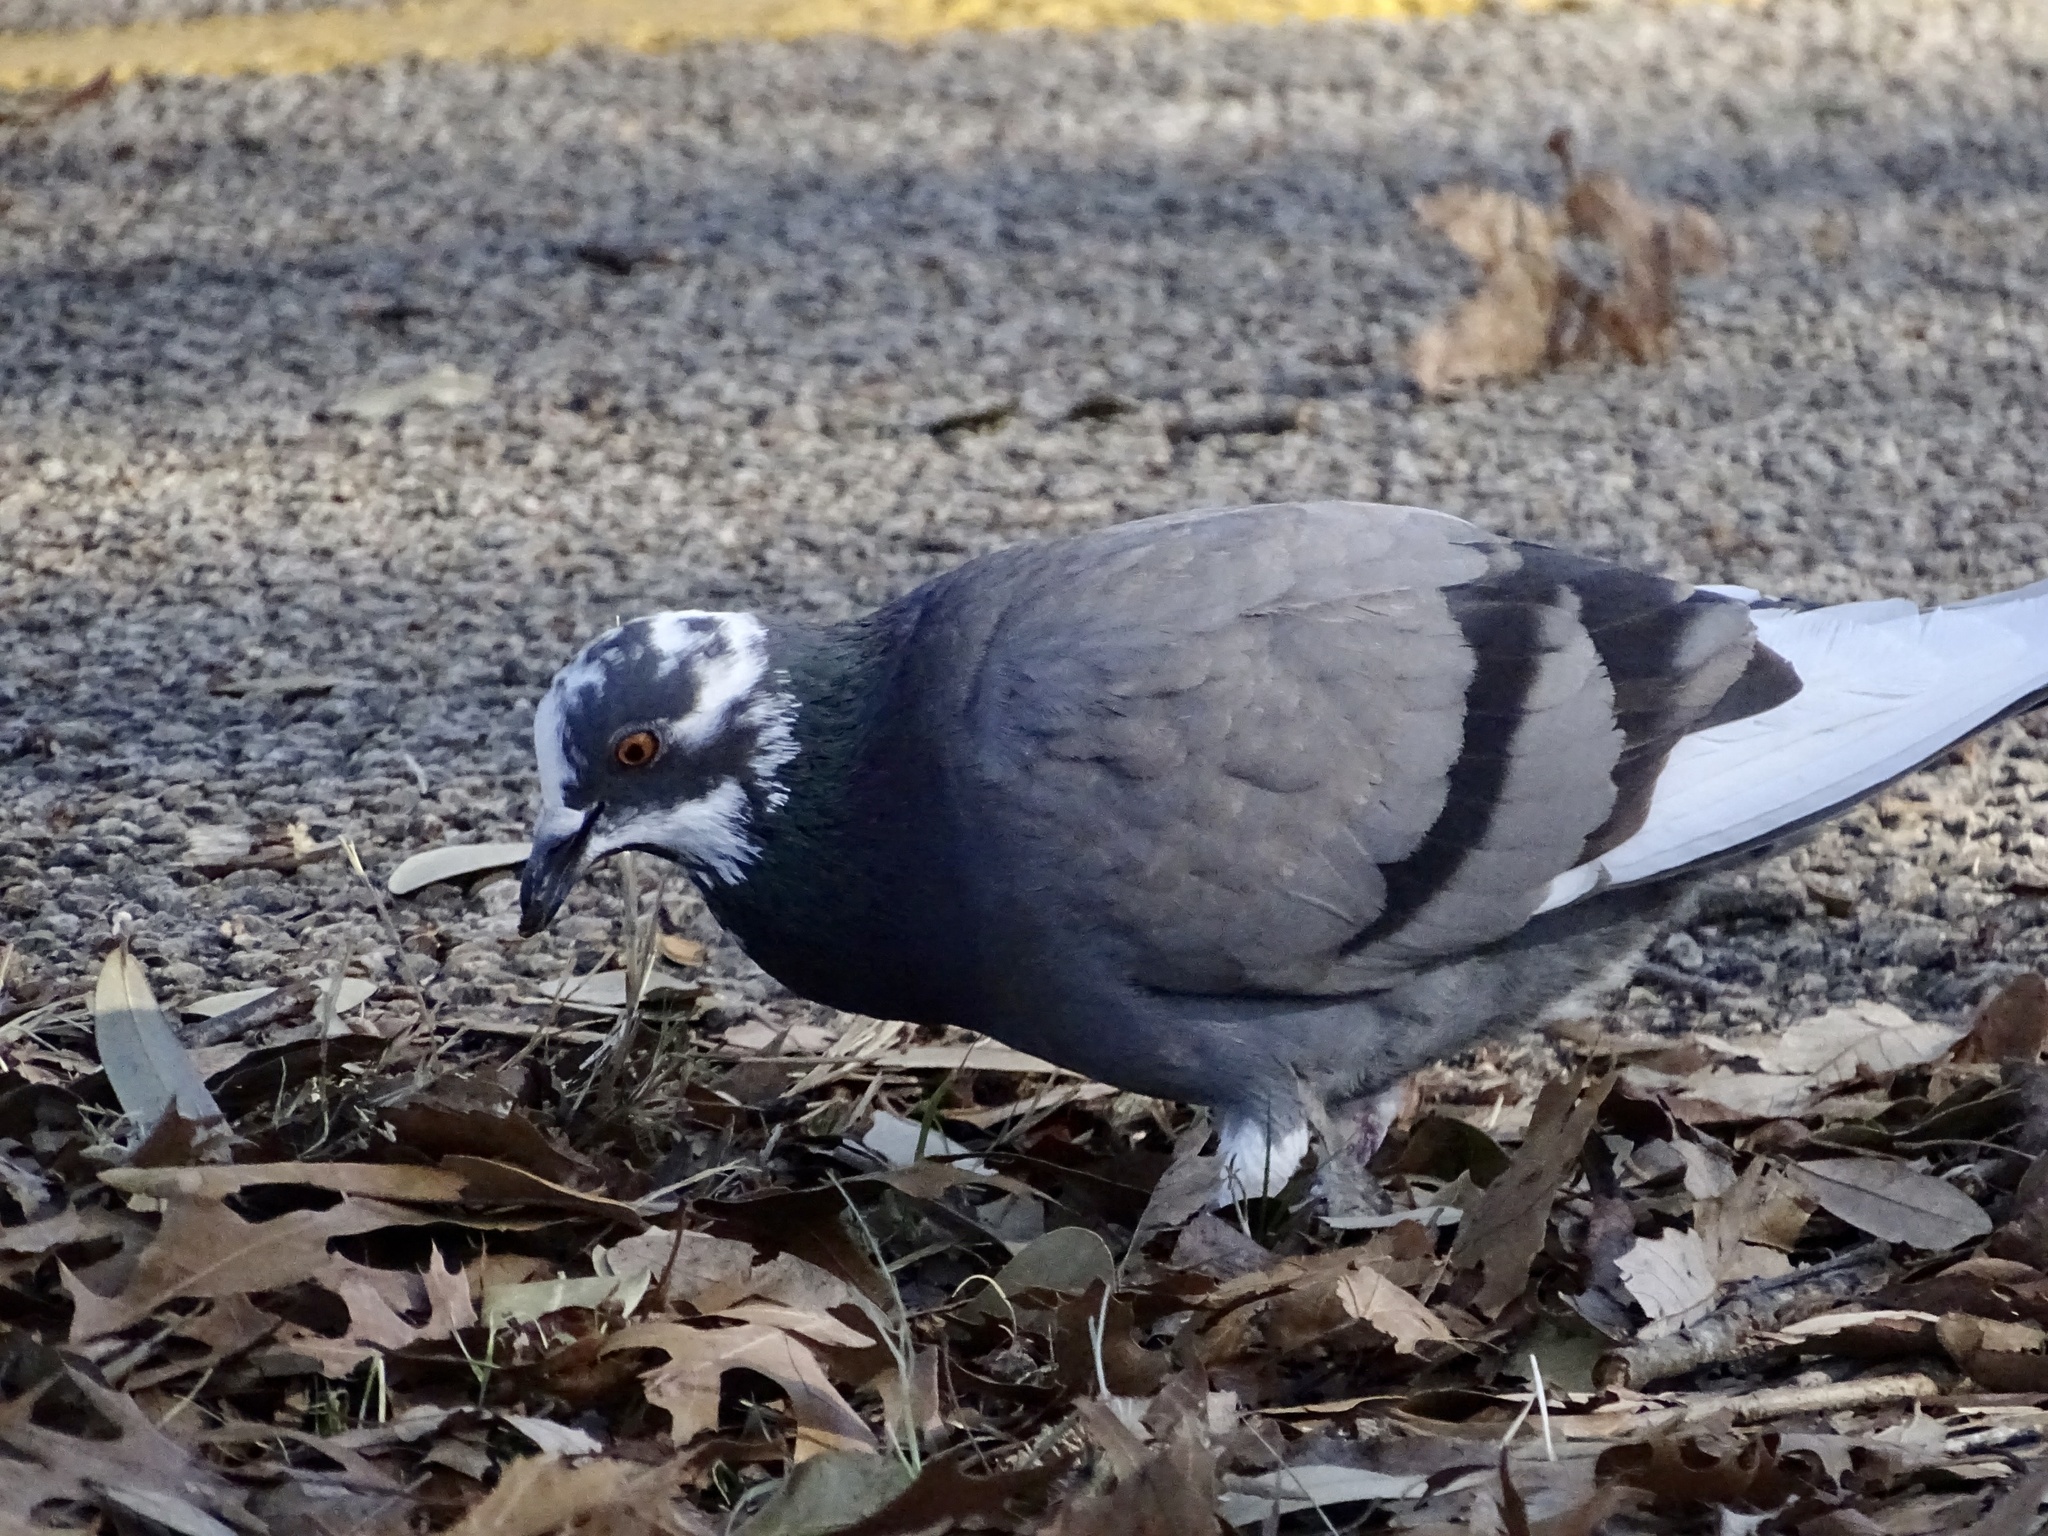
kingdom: Animalia
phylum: Chordata
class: Aves
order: Columbiformes
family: Columbidae
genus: Columba
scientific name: Columba livia
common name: Rock pigeon
